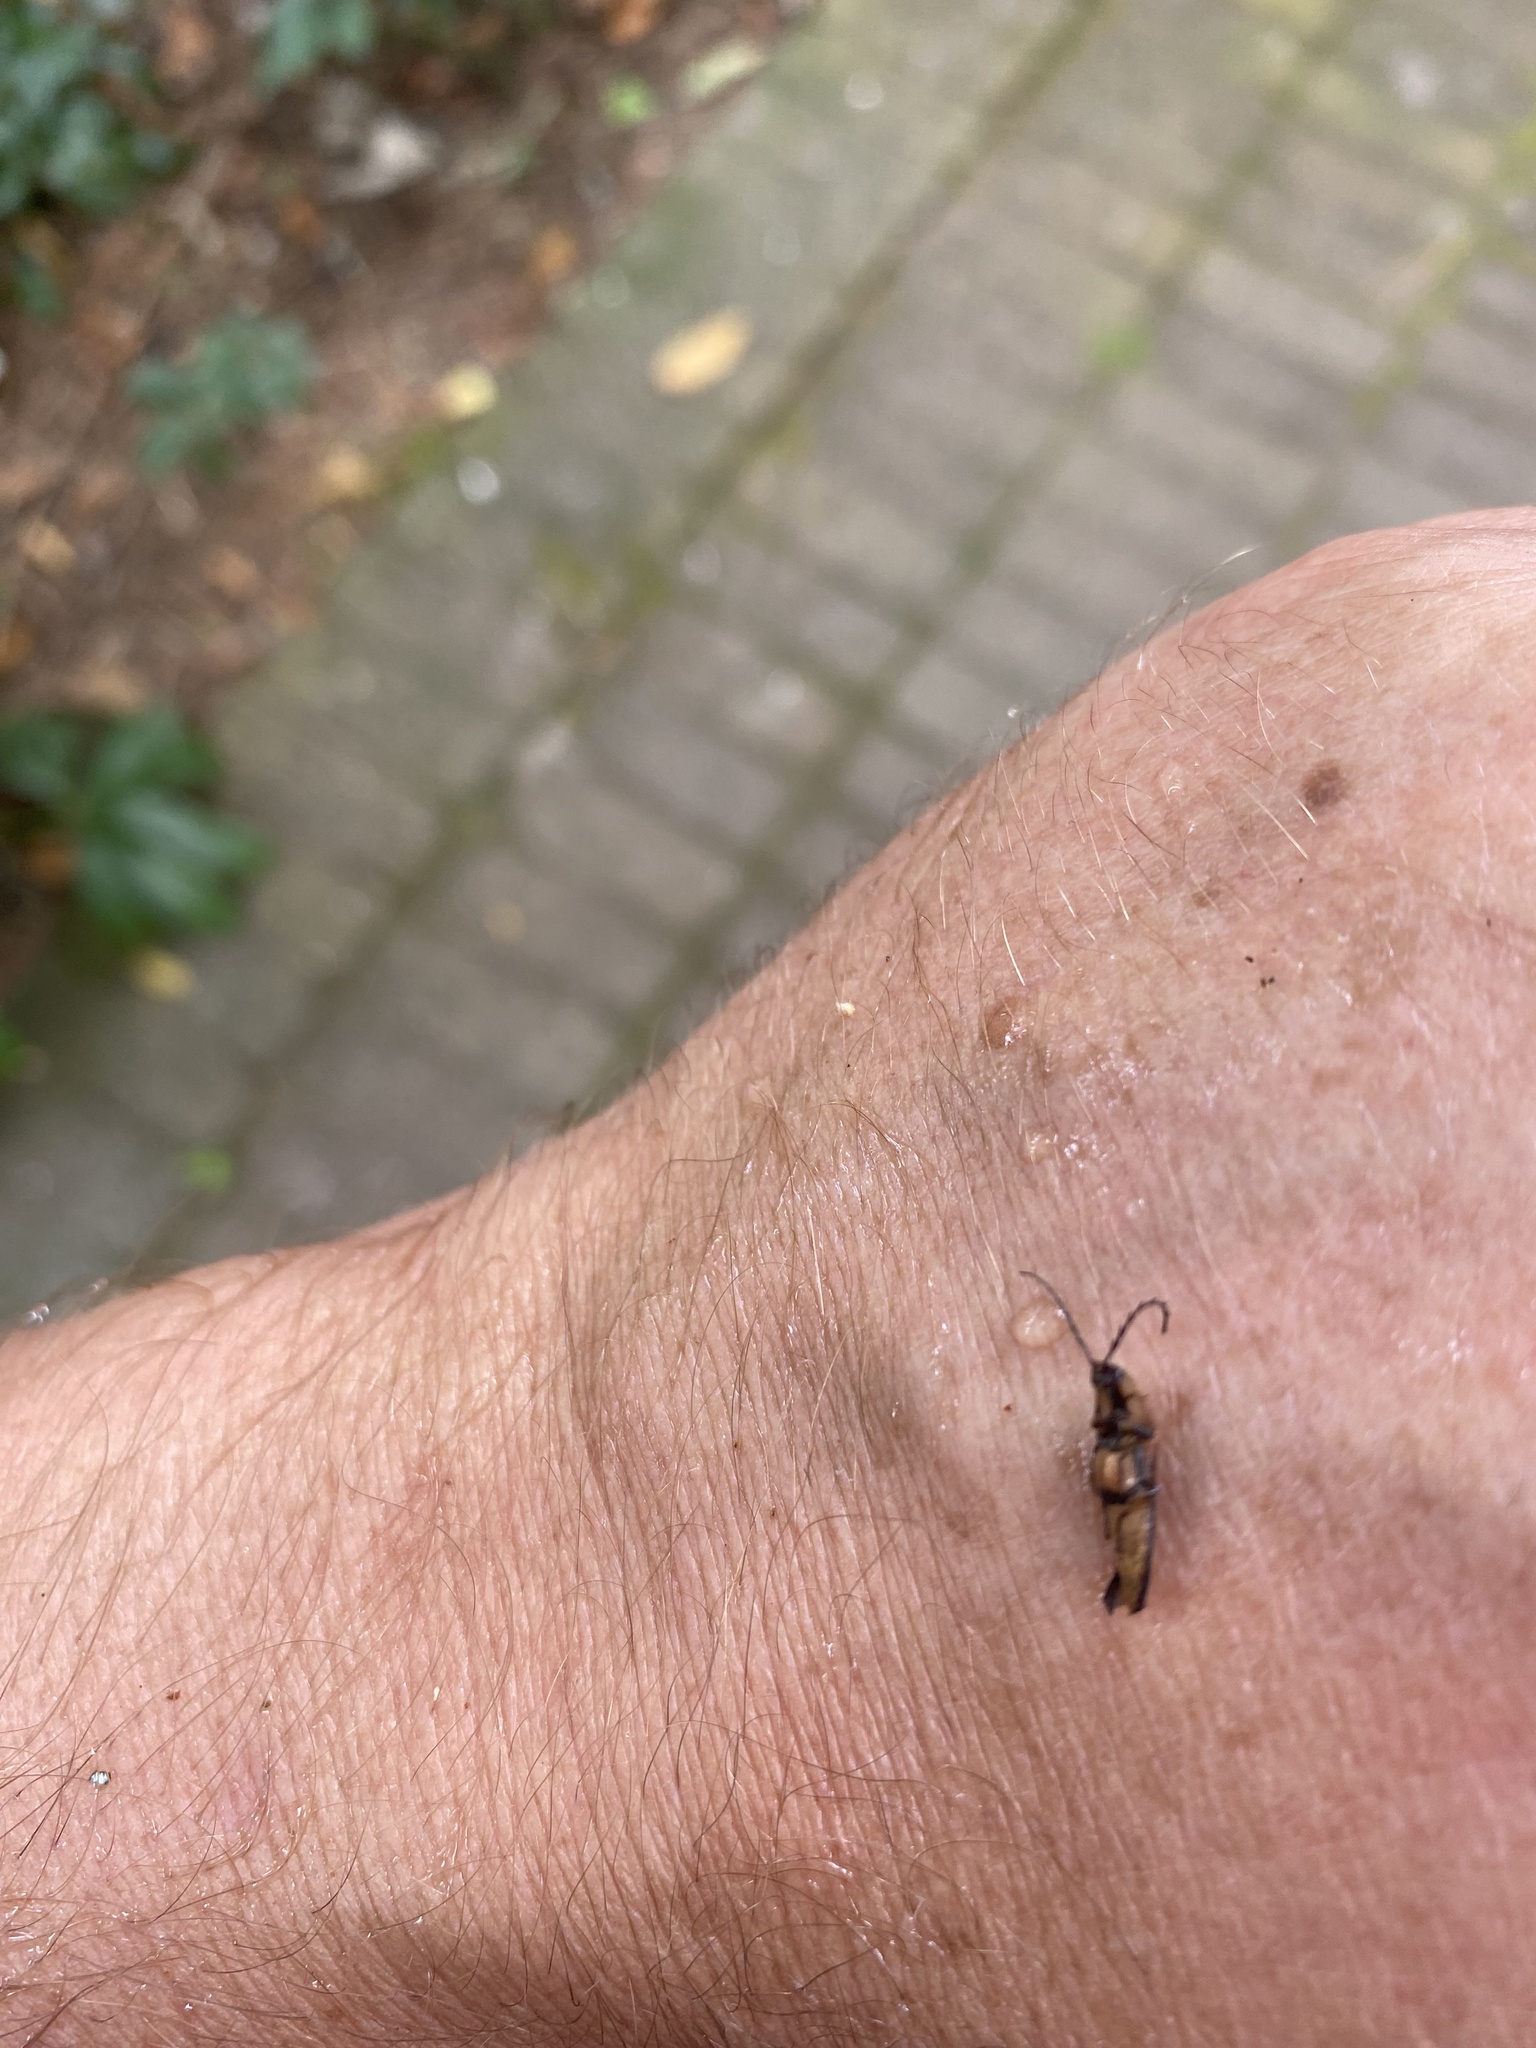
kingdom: Animalia
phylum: Arthropoda
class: Insecta
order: Coleoptera
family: Elateridae
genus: Sphaenelater
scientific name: Sphaenelater
